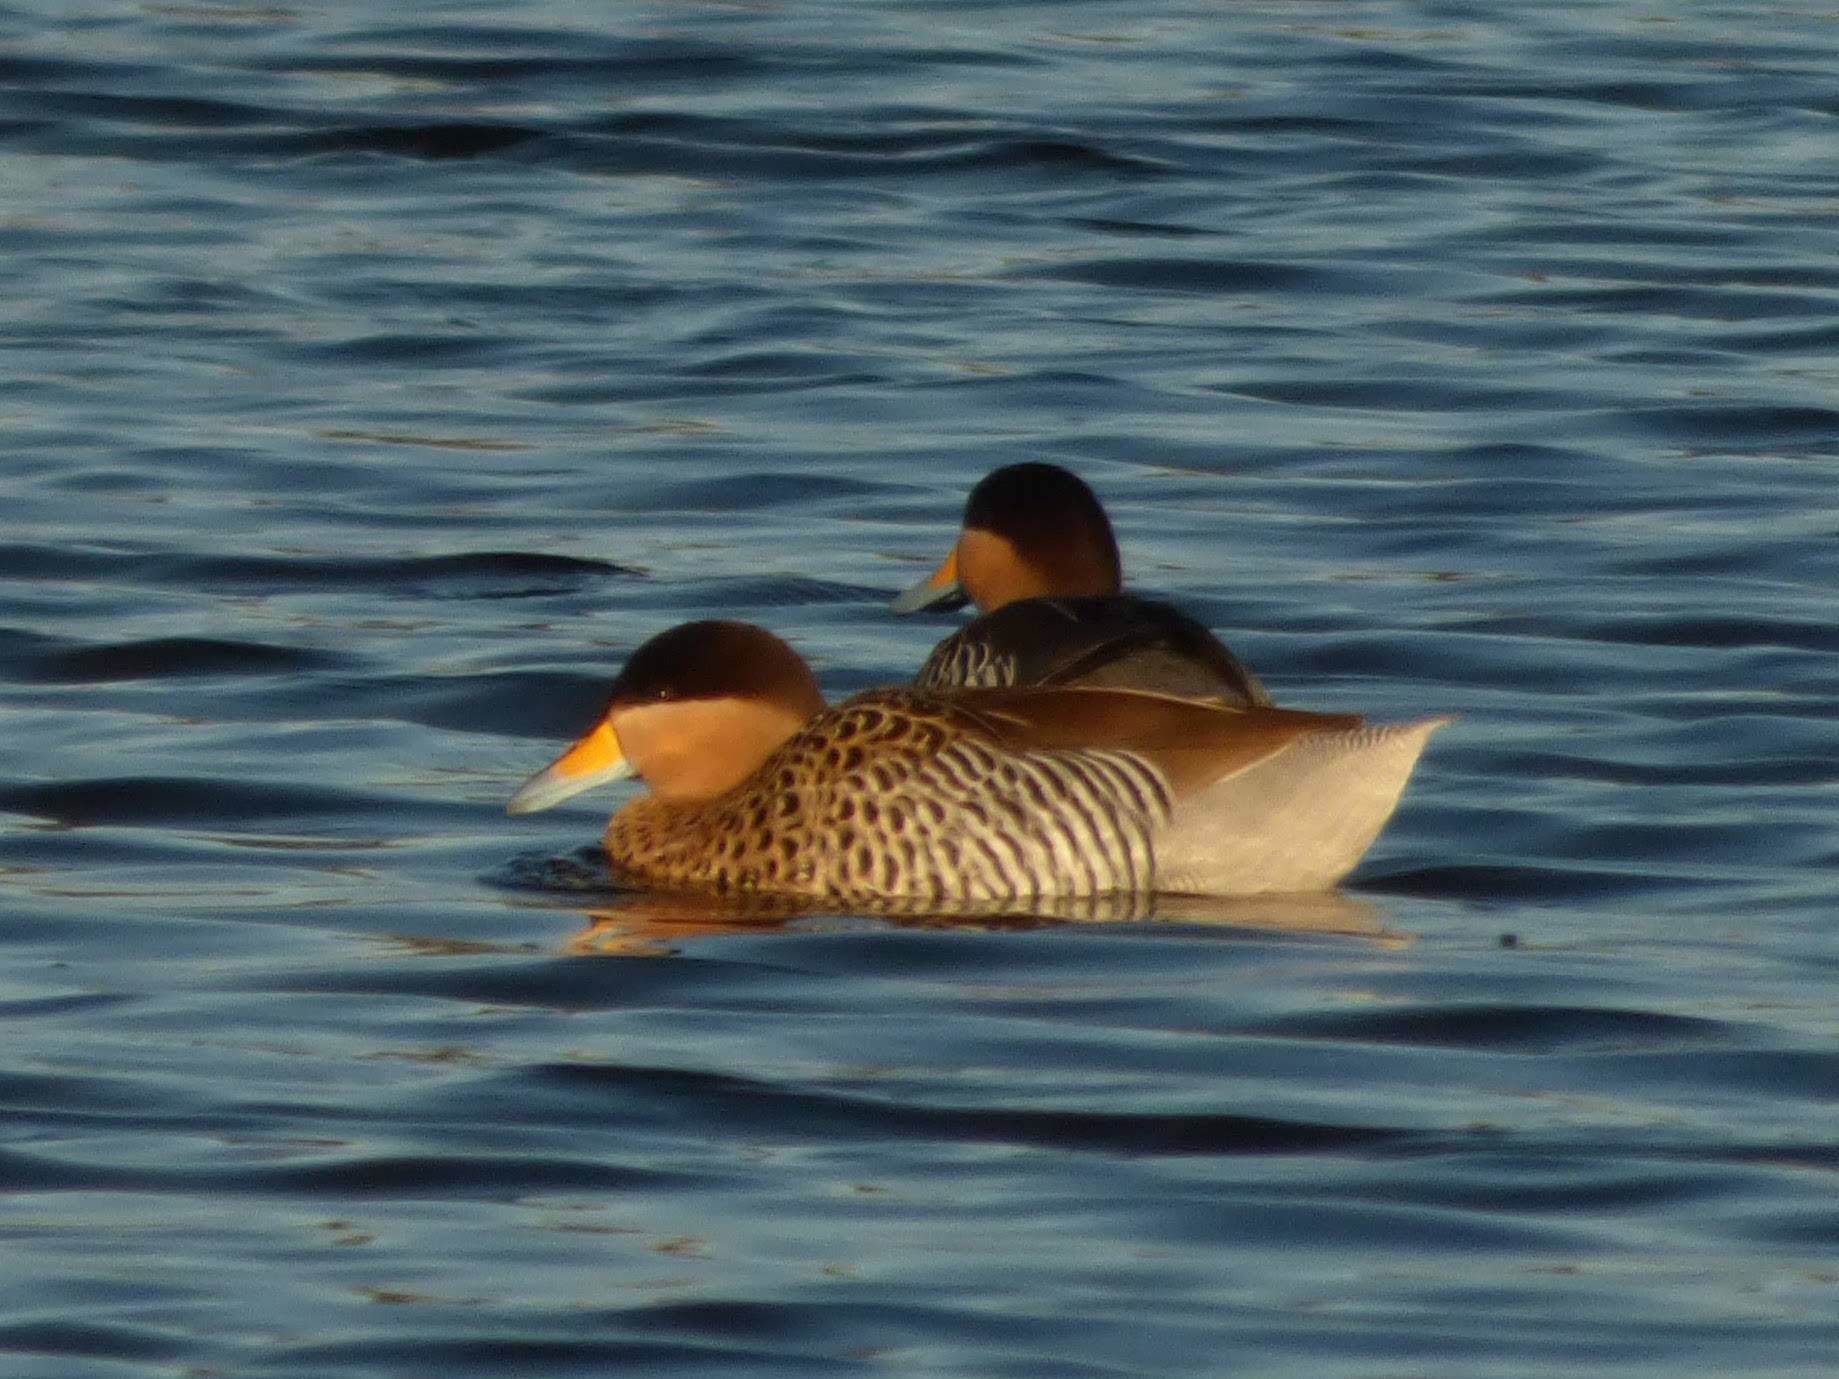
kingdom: Animalia
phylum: Chordata
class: Aves
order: Anseriformes
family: Anatidae
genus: Spatula
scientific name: Spatula versicolor
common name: Silver teal
